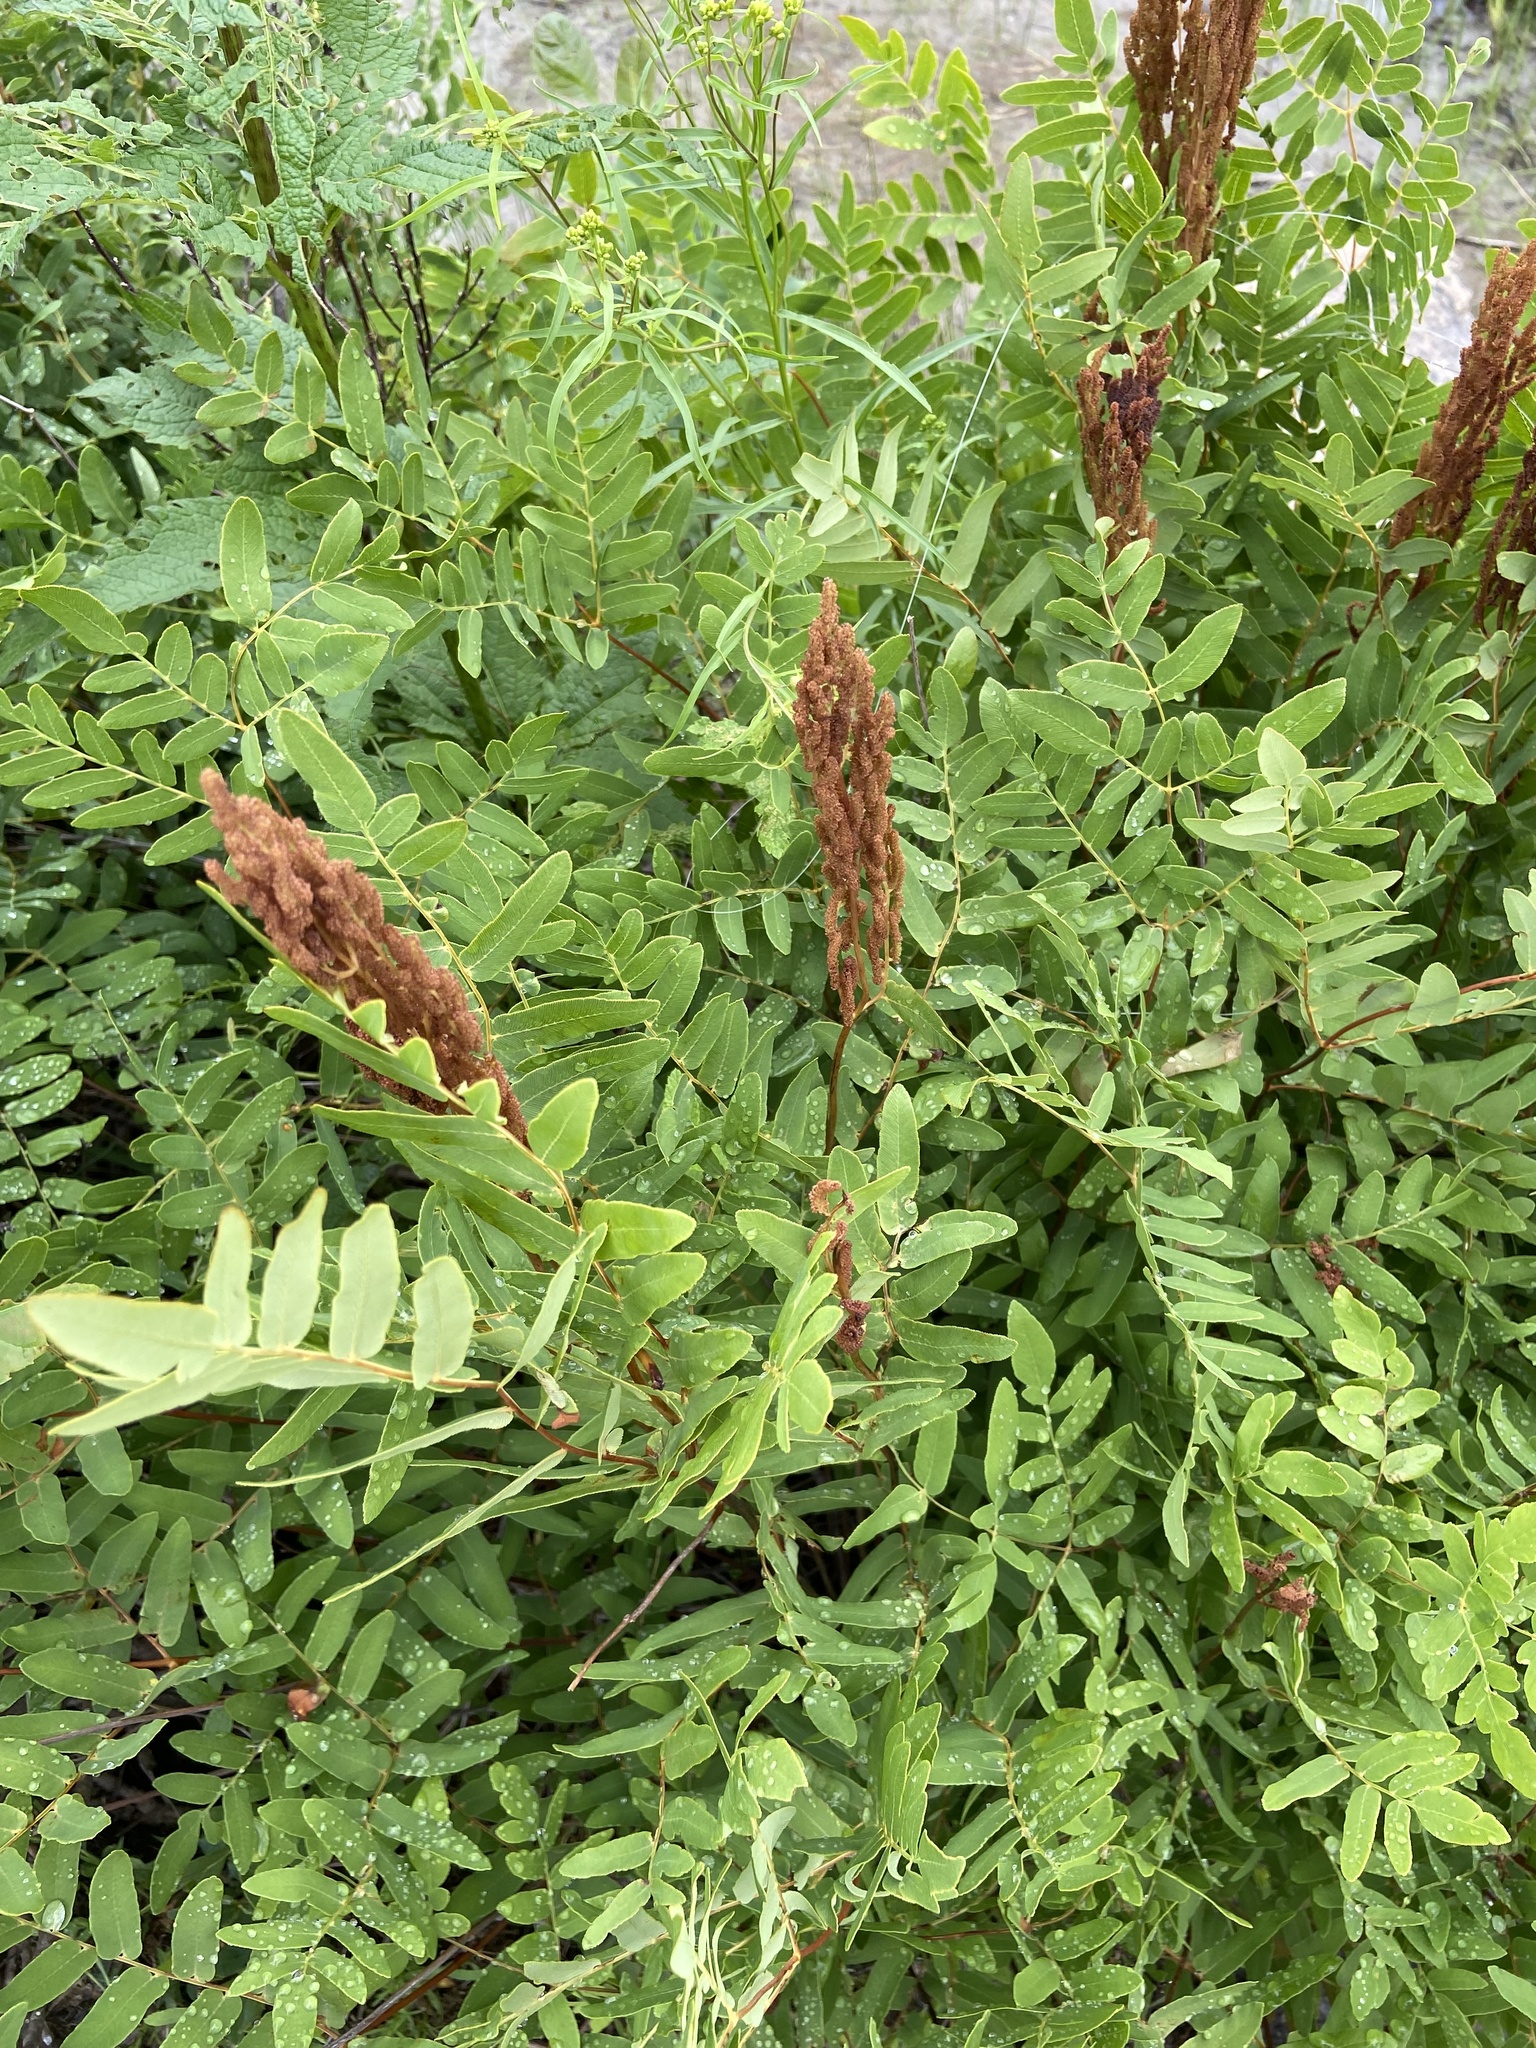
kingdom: Plantae
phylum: Tracheophyta
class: Polypodiopsida
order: Osmundales
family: Osmundaceae
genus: Osmunda
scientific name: Osmunda spectabilis
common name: American royal fern
